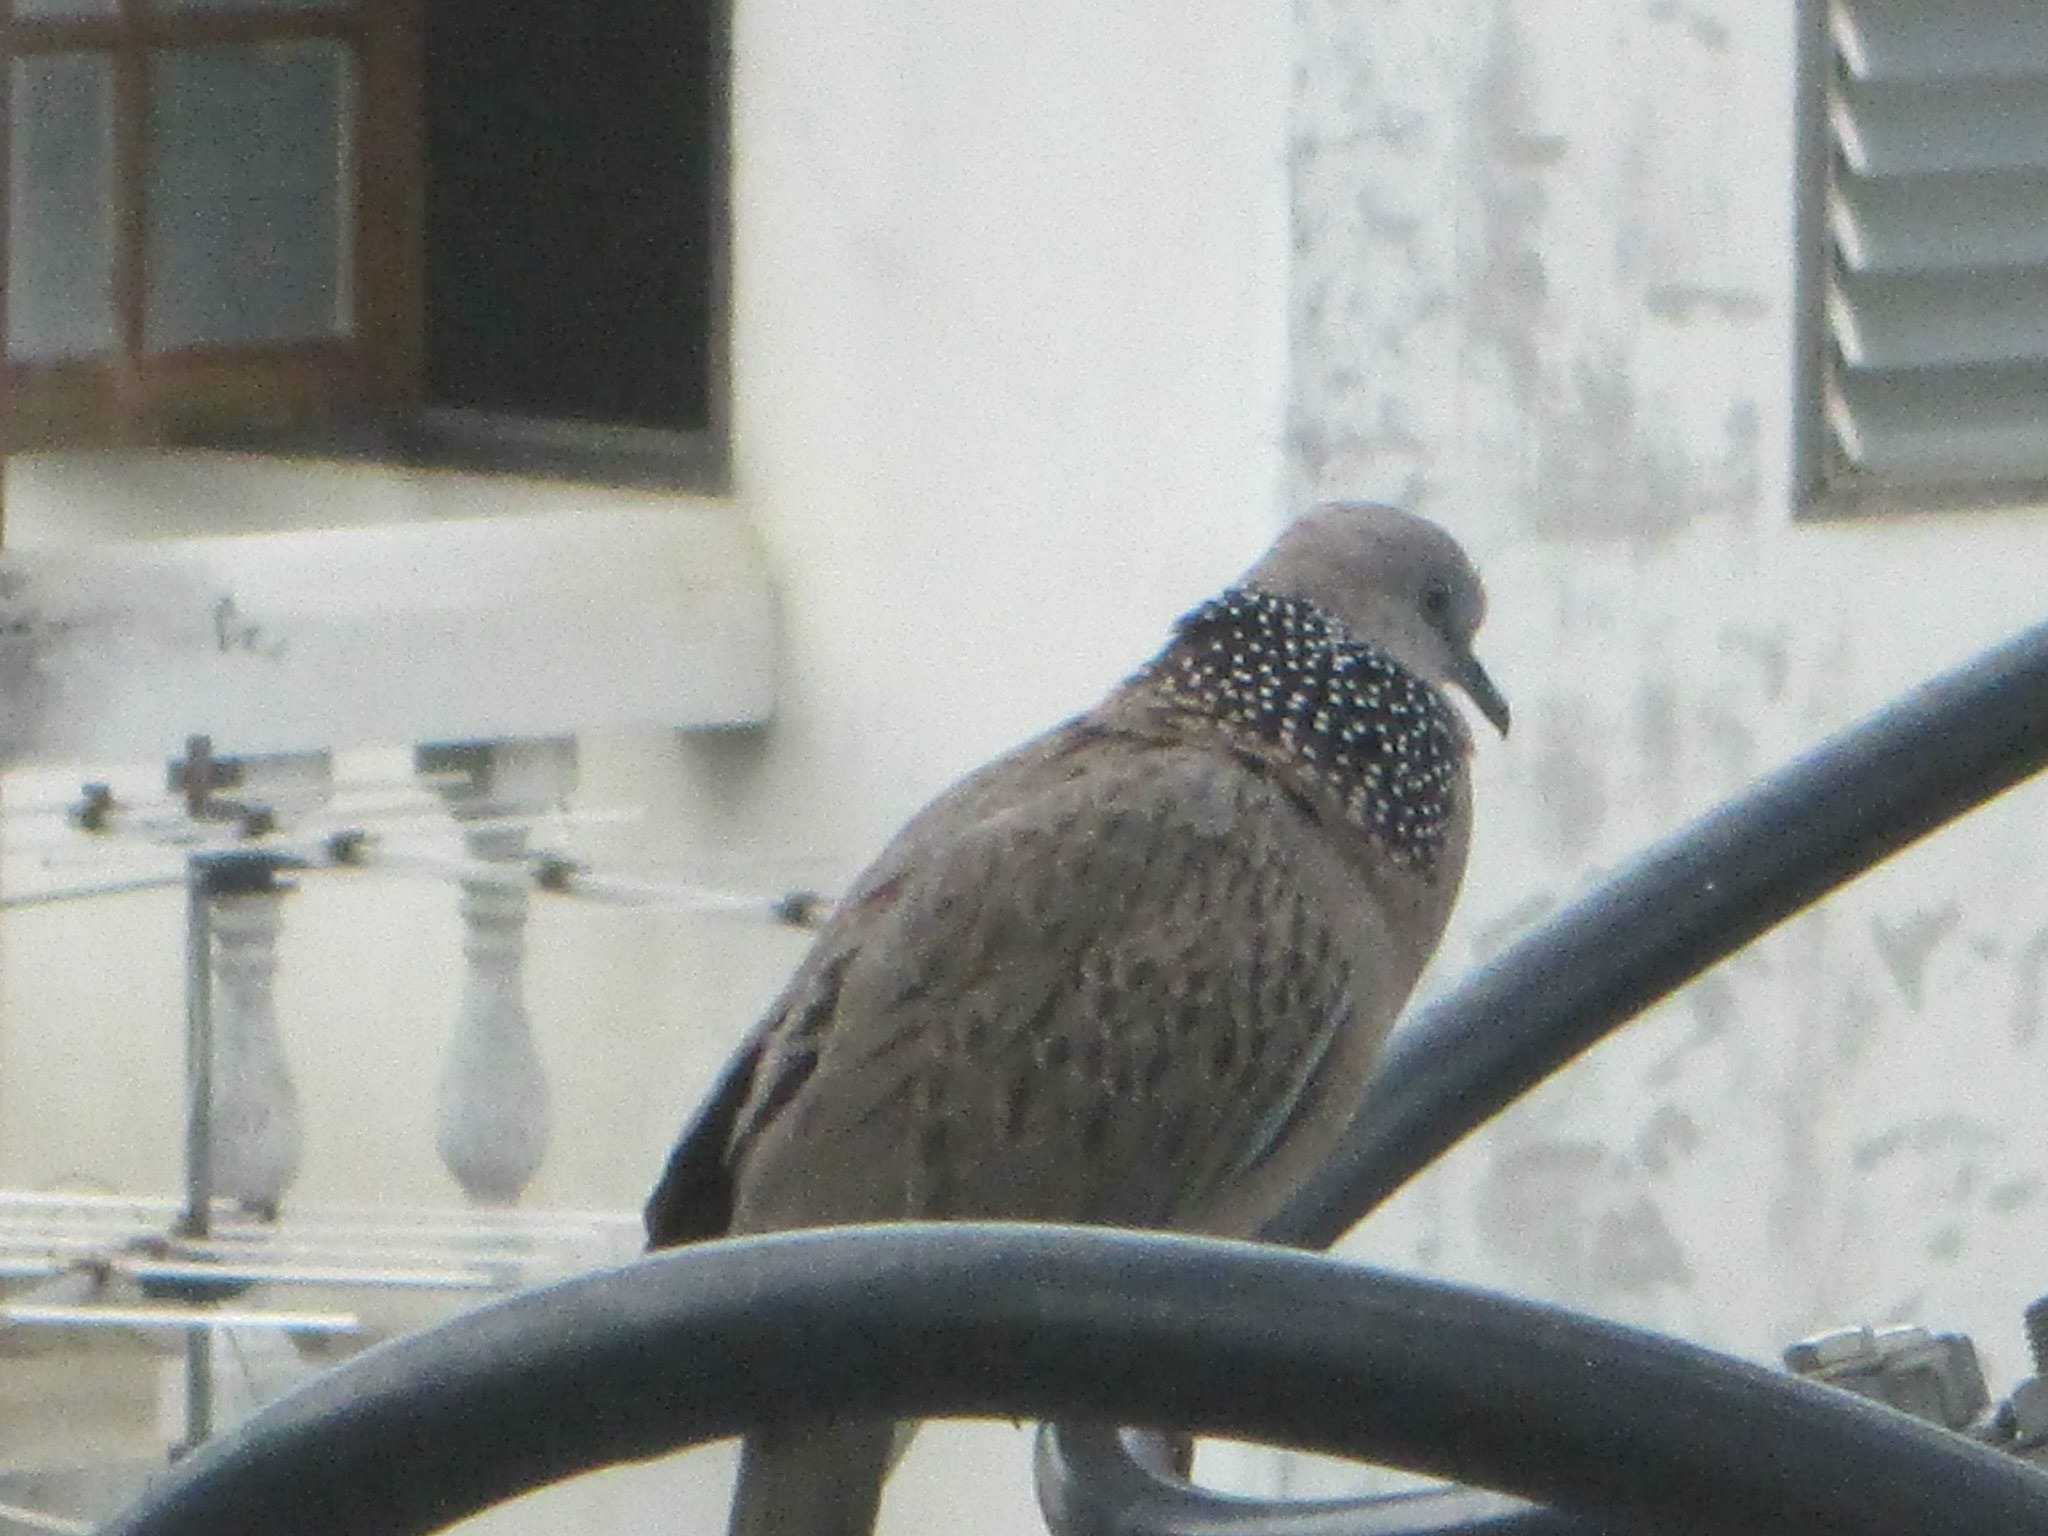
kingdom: Animalia
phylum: Chordata
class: Aves
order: Columbiformes
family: Columbidae
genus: Spilopelia
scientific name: Spilopelia chinensis
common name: Spotted dove
